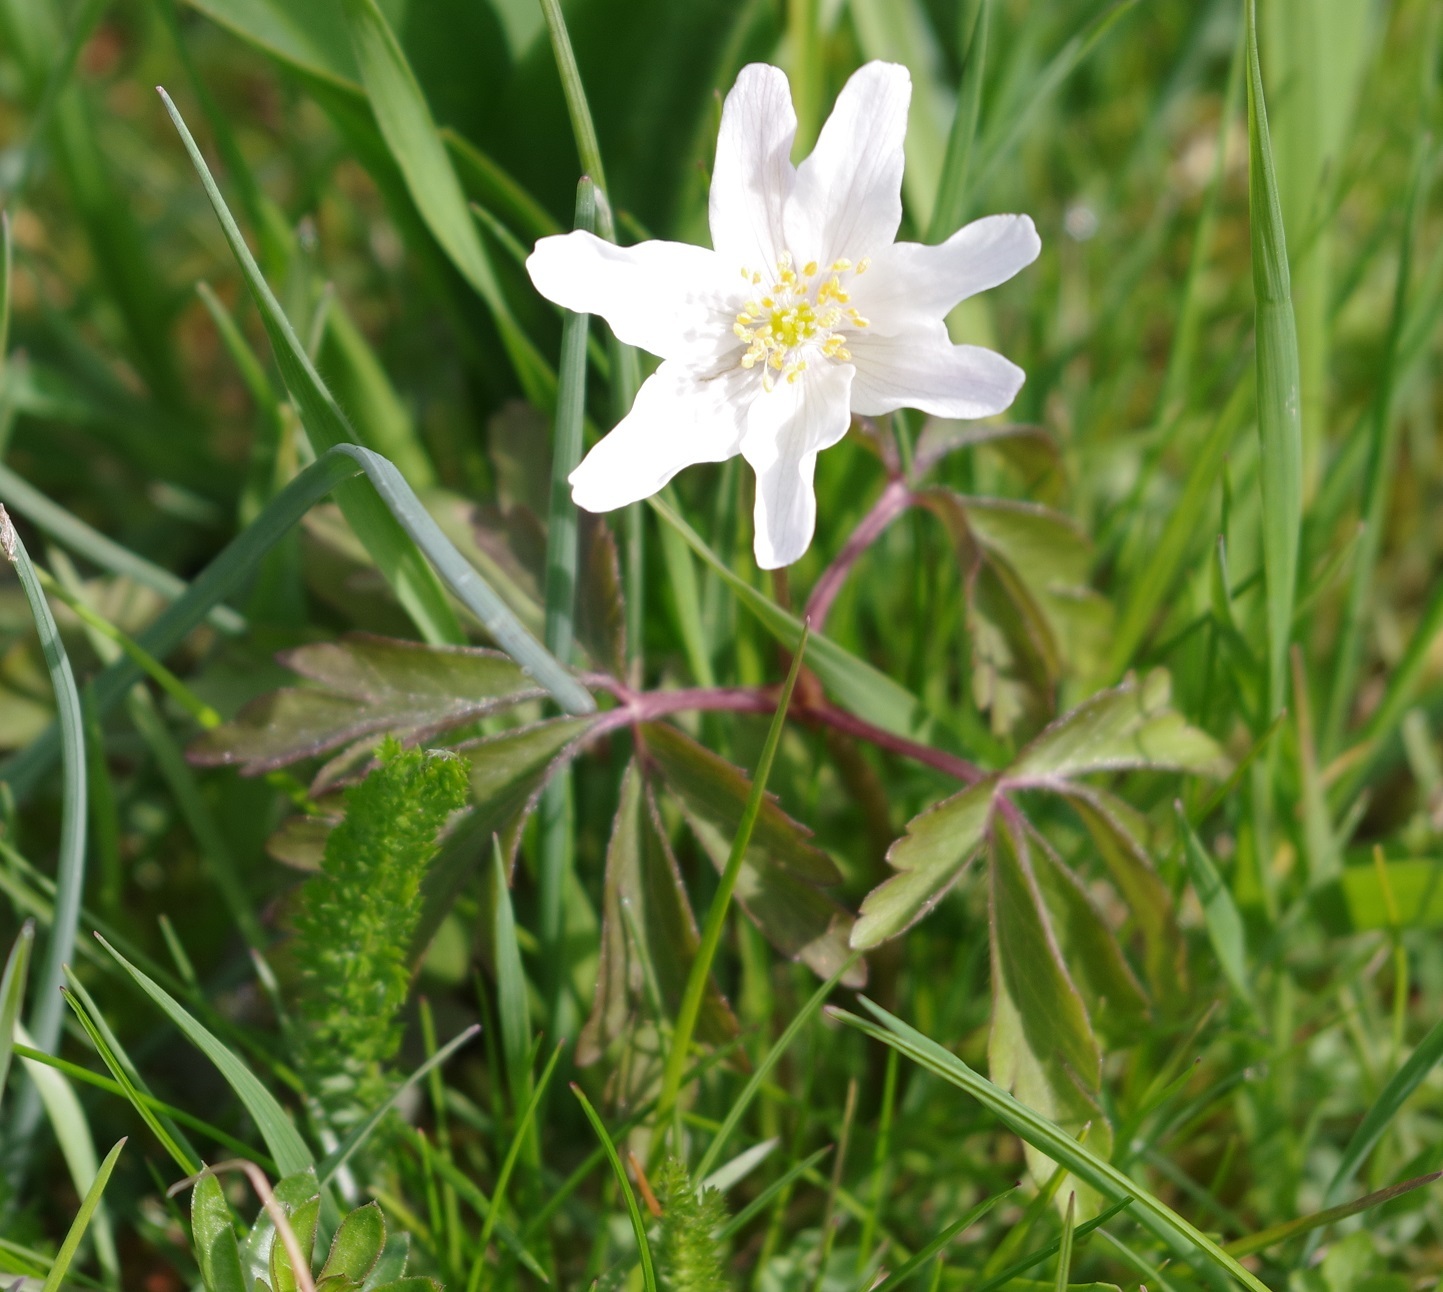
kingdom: Plantae
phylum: Tracheophyta
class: Magnoliopsida
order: Ranunculales
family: Ranunculaceae
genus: Anemone
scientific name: Anemone nemorosa
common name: Wood anemone
